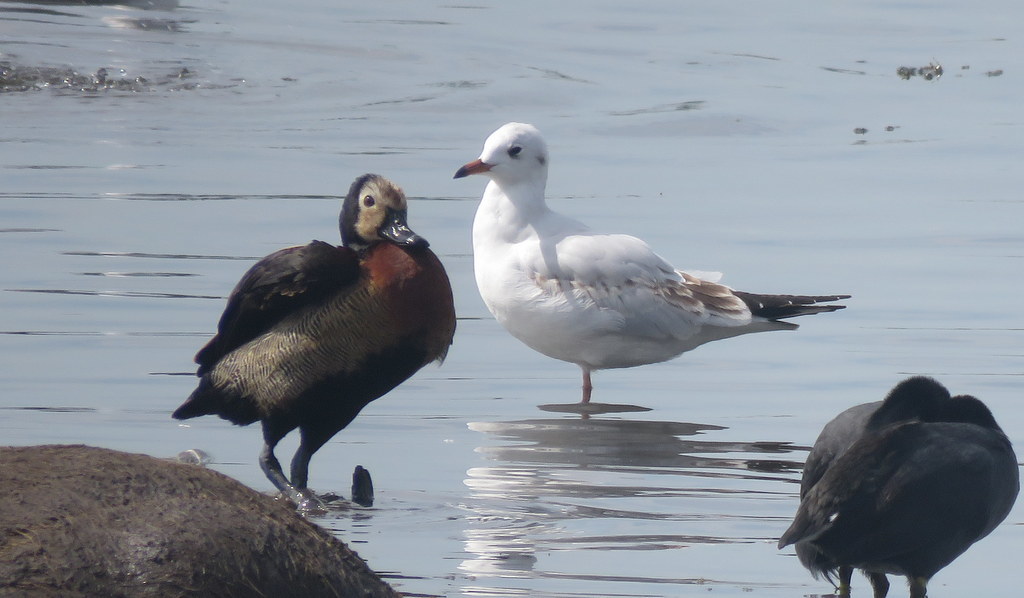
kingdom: Animalia
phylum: Chordata
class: Aves
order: Charadriiformes
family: Laridae
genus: Chroicocephalus
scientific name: Chroicocephalus maculipennis
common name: Brown-hooded gull
